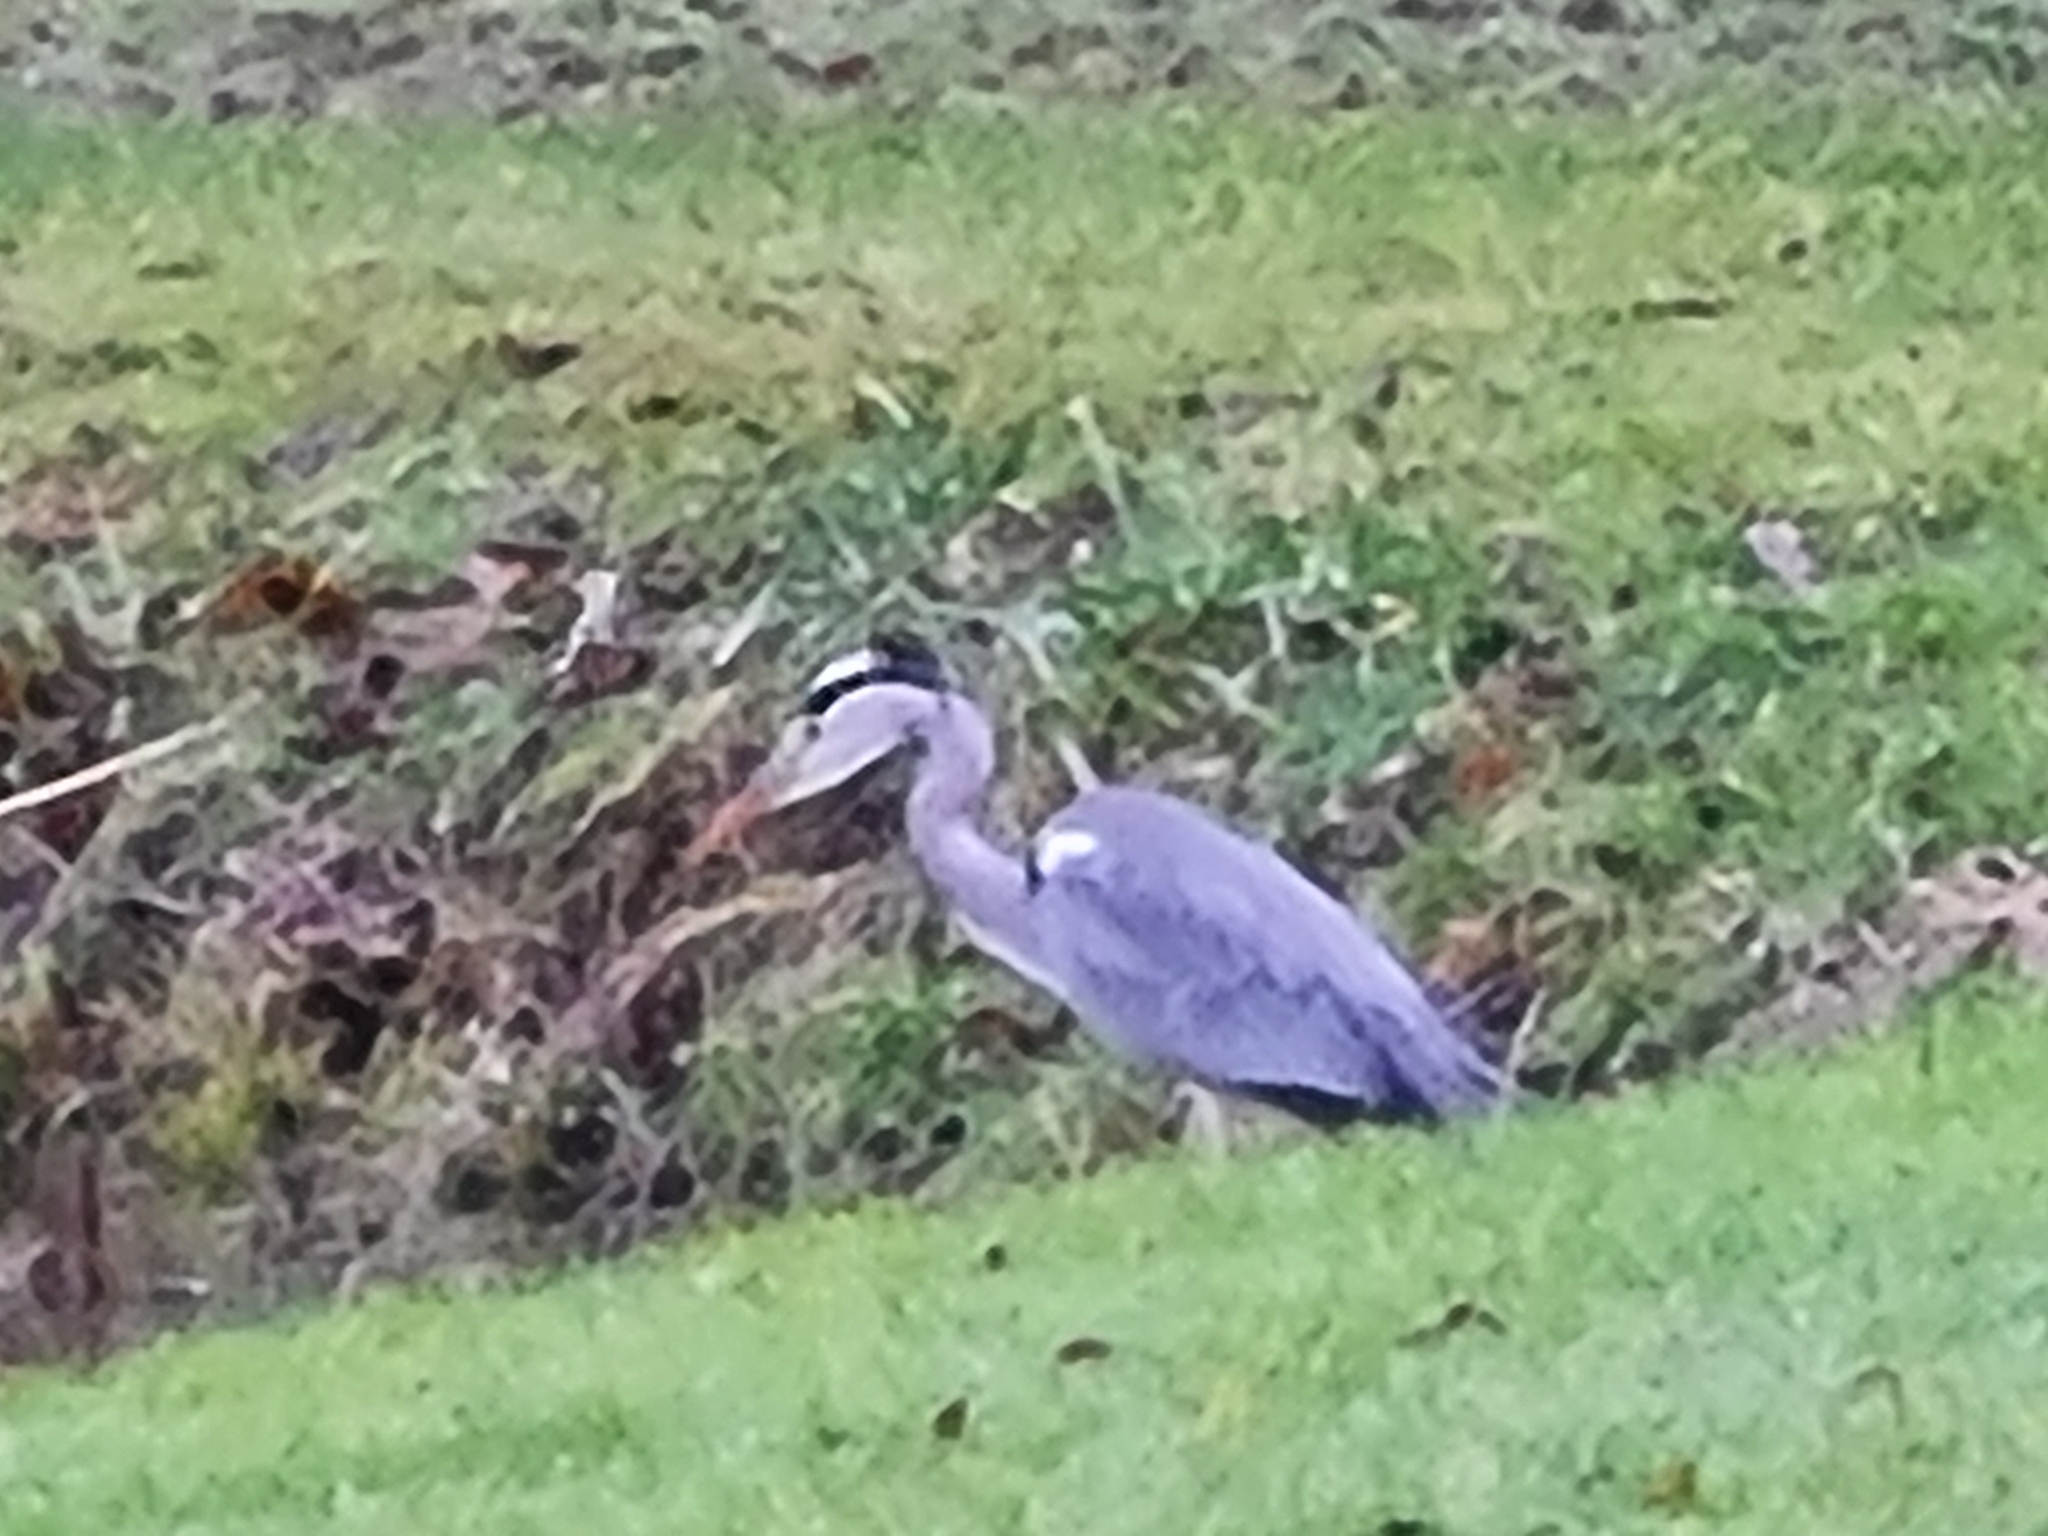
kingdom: Animalia
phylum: Chordata
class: Aves
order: Pelecaniformes
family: Ardeidae
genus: Ardea
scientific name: Ardea cinerea
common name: Grey heron
